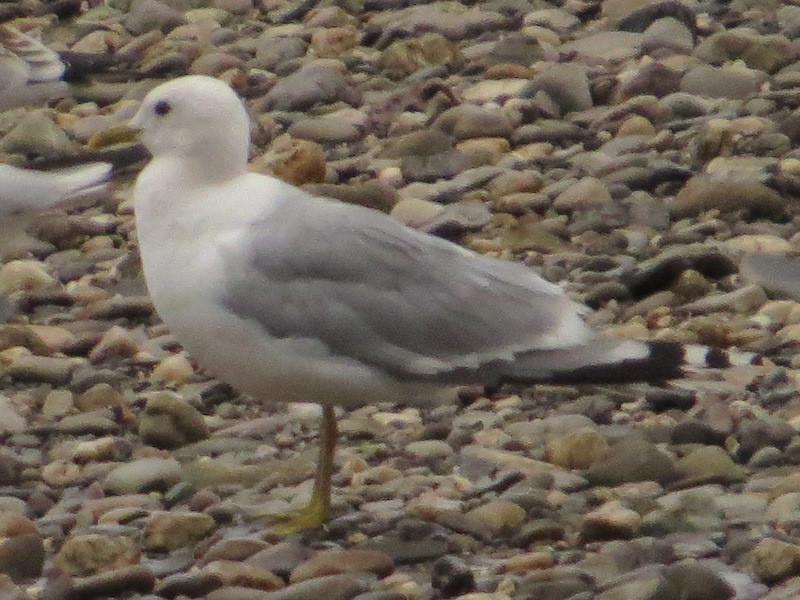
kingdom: Animalia
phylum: Chordata
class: Aves
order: Charadriiformes
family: Laridae
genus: Larus
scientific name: Larus canus
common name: Mew gull
